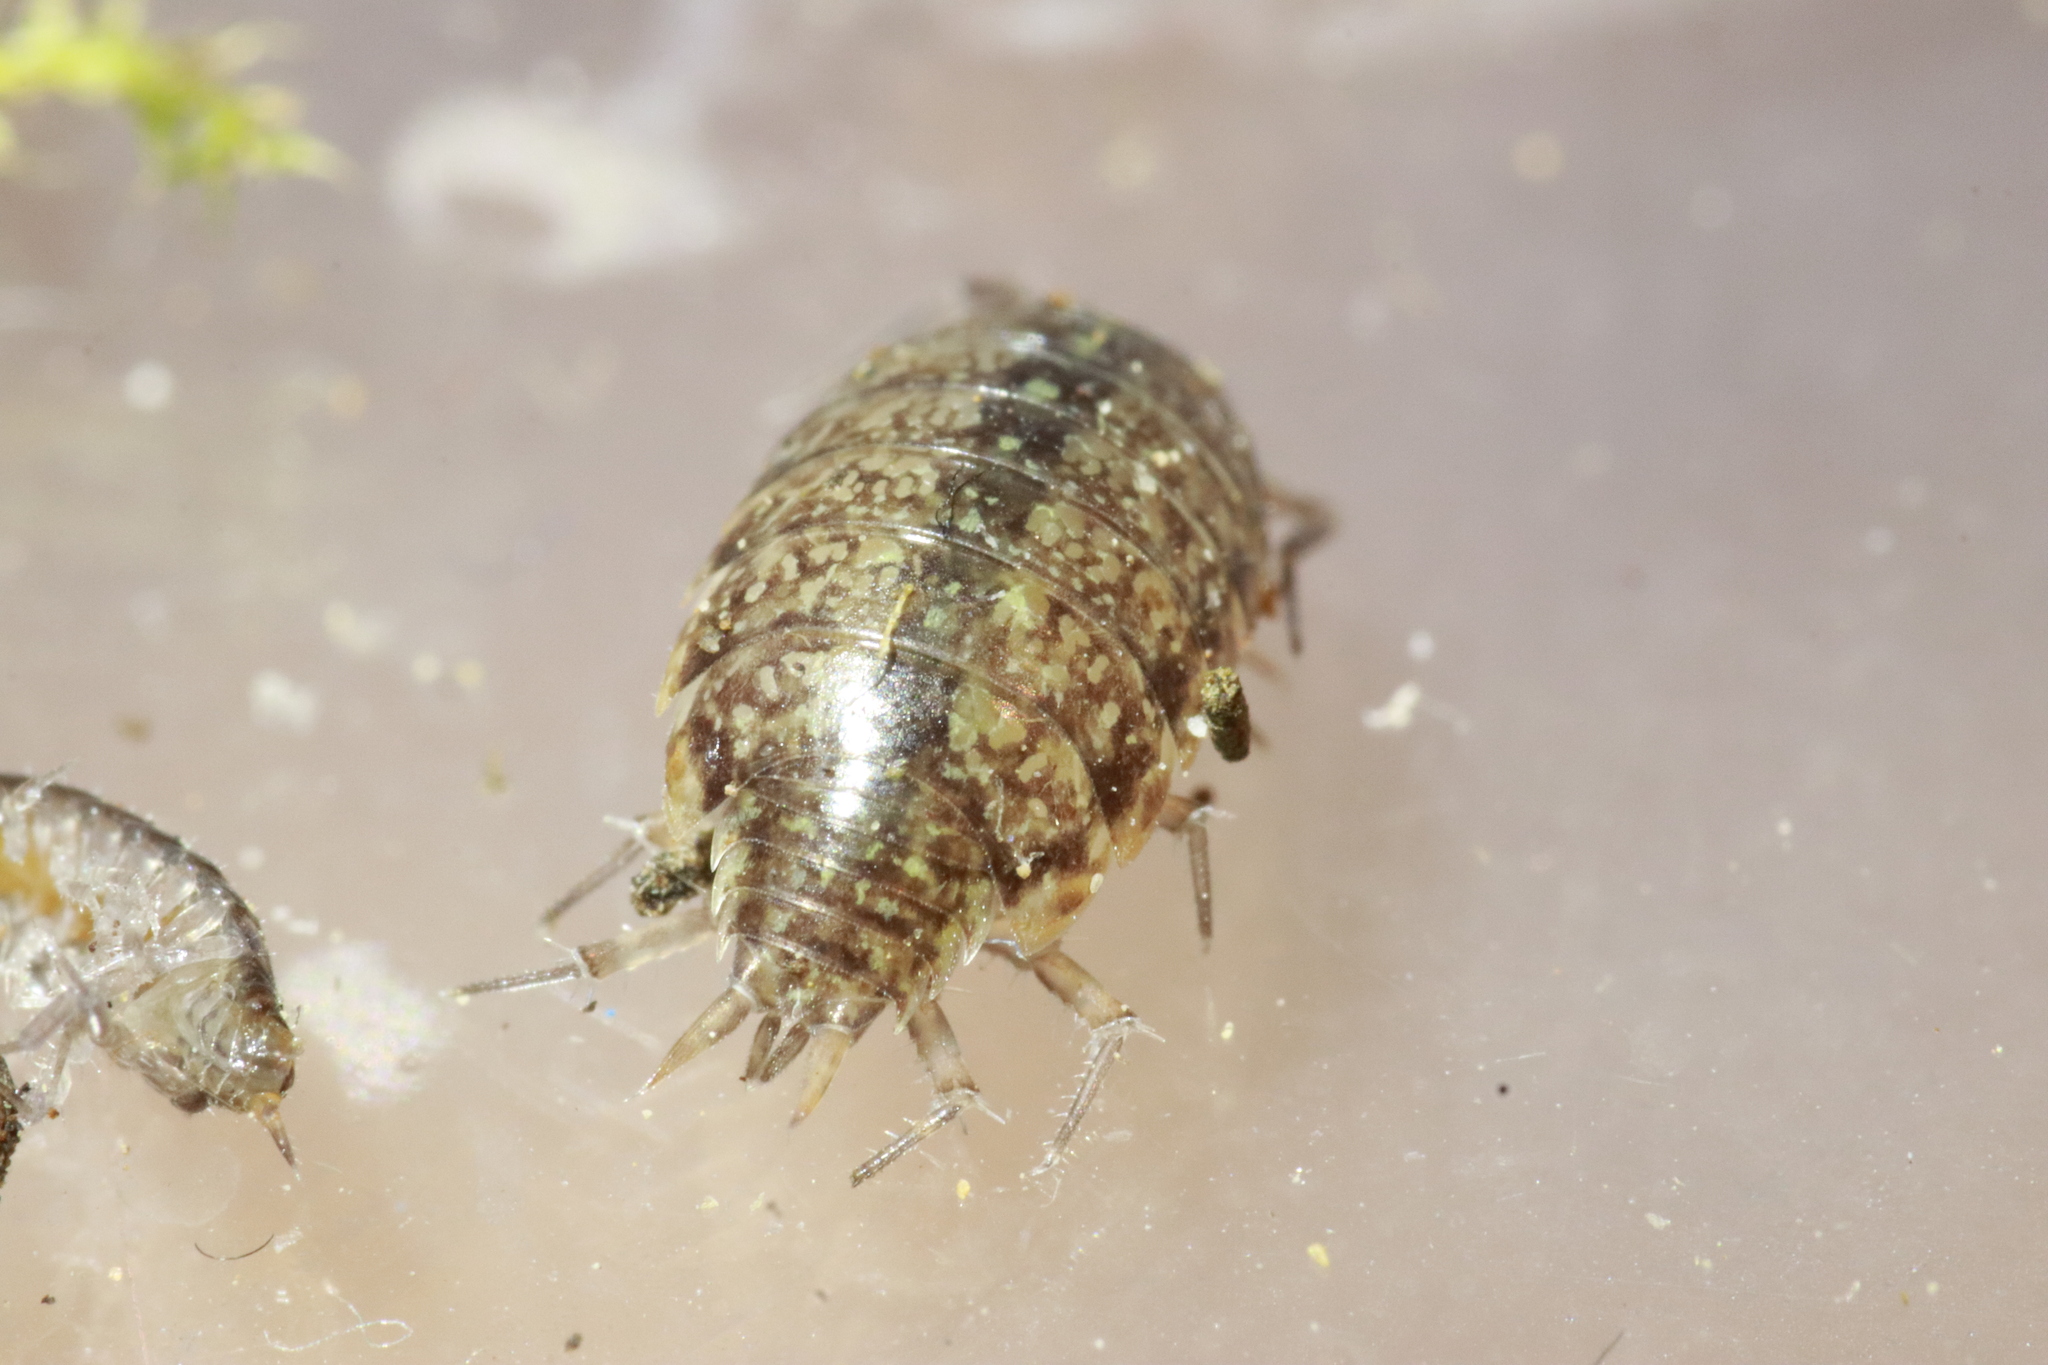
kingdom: Animalia
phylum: Arthropoda
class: Malacostraca
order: Isopoda
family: Philosciidae
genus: Philoscia
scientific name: Philoscia affinis
